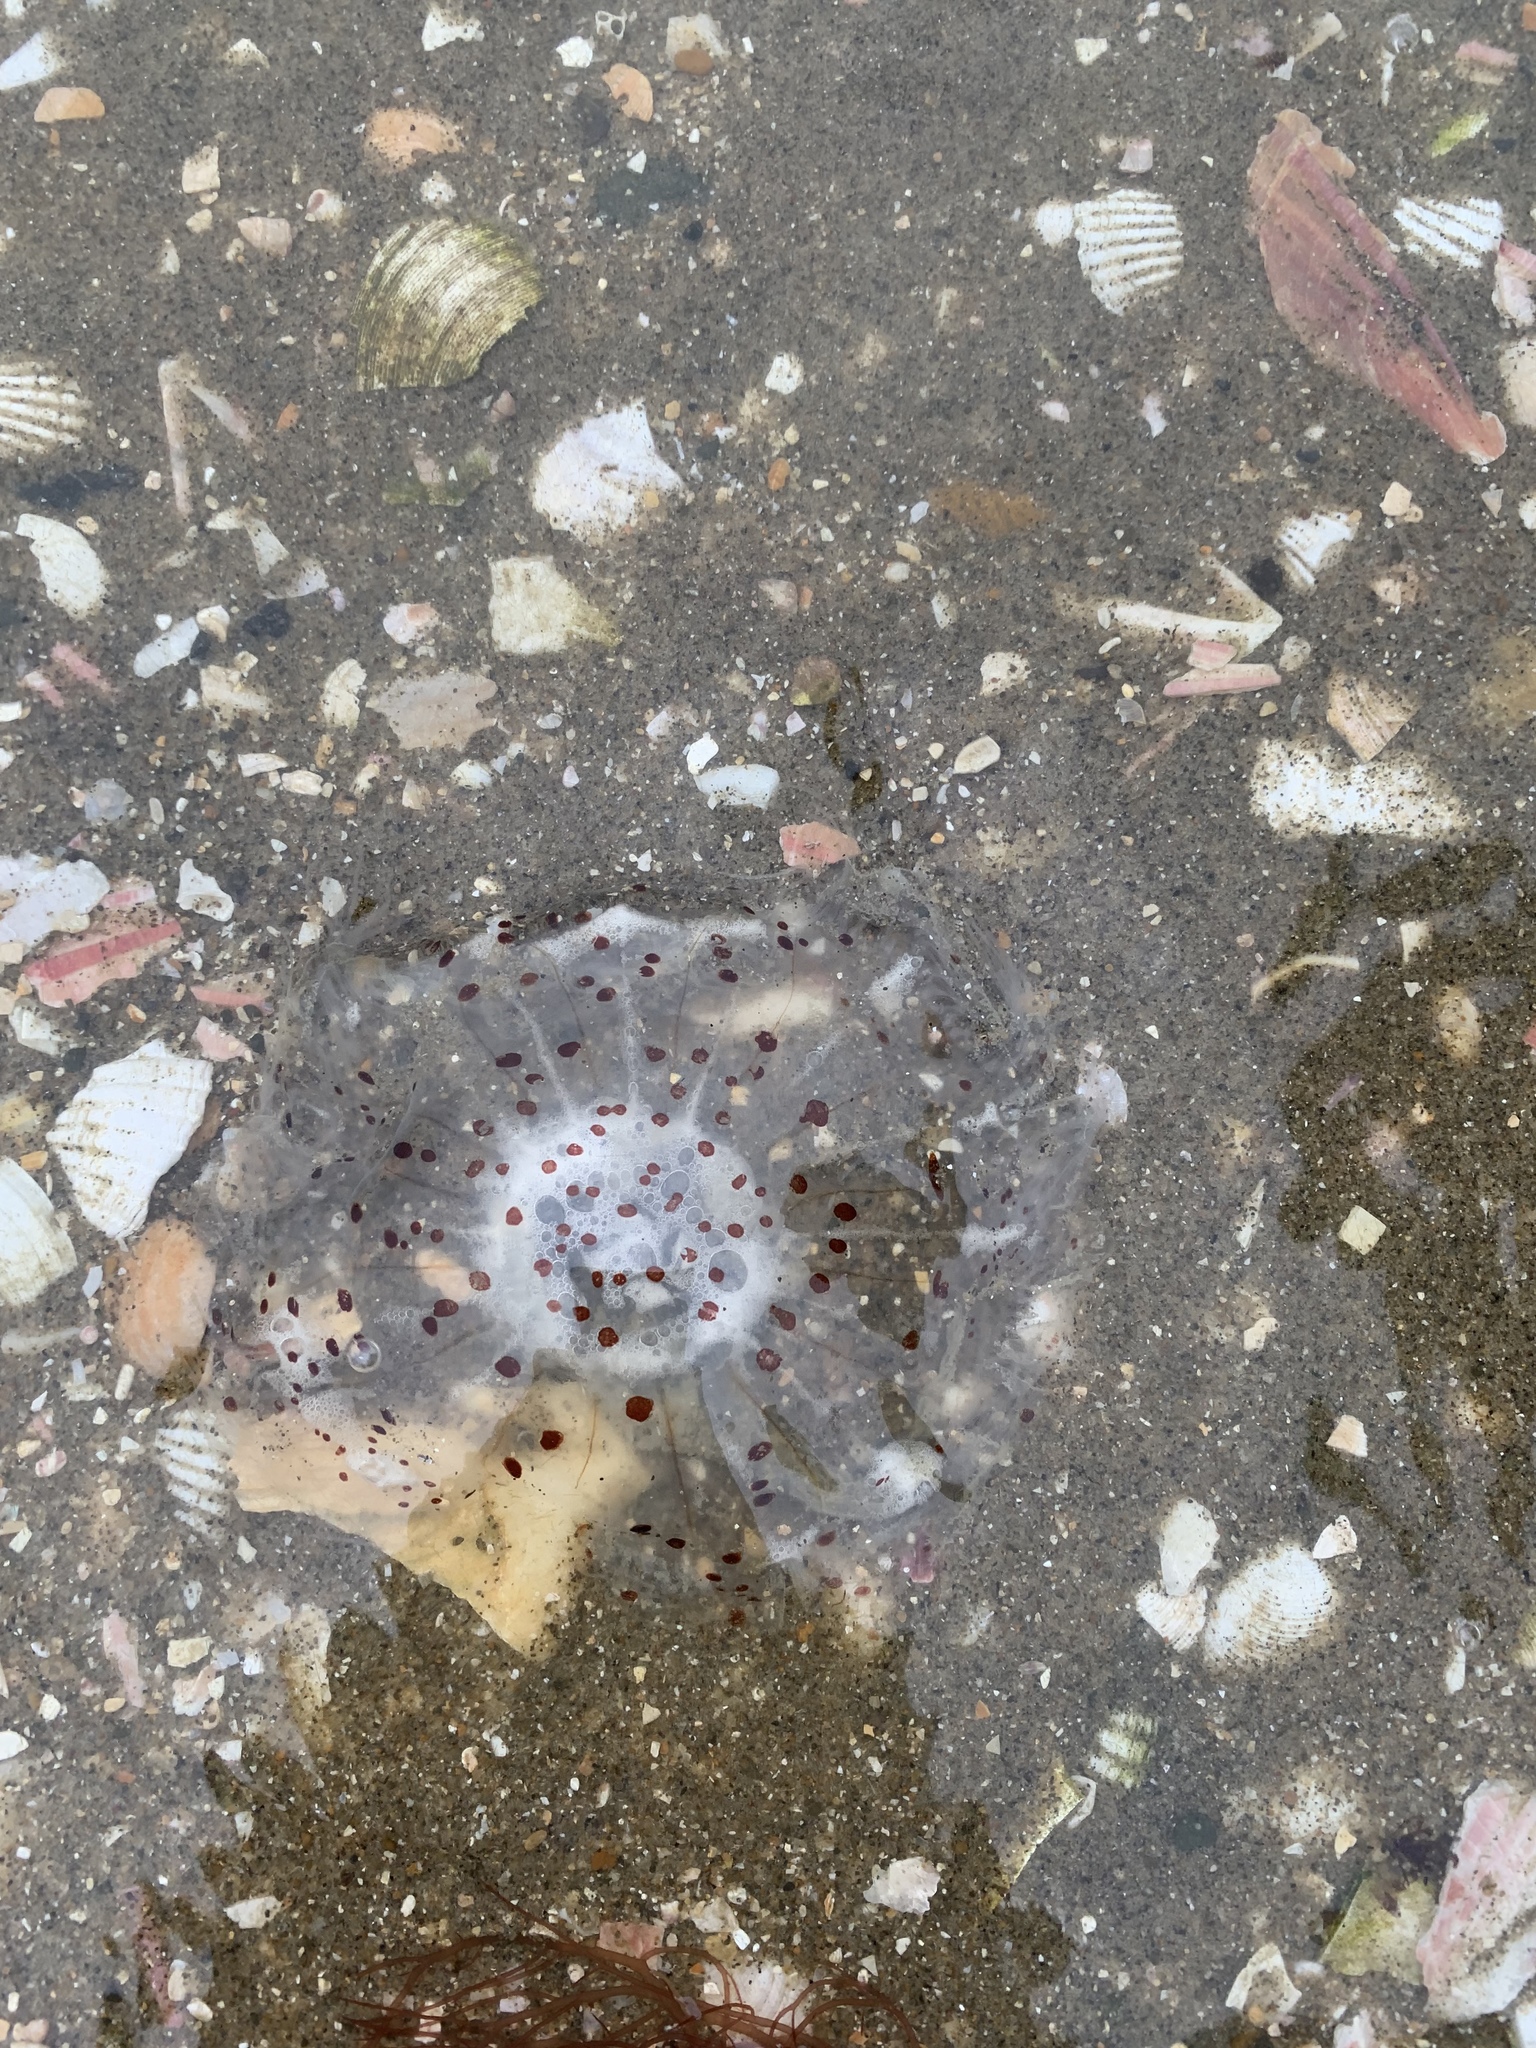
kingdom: Animalia
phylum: Cnidaria
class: Scyphozoa
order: Semaeostomeae
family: Cyaneidae
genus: Desmonema
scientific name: Desmonema gaudichaudi
